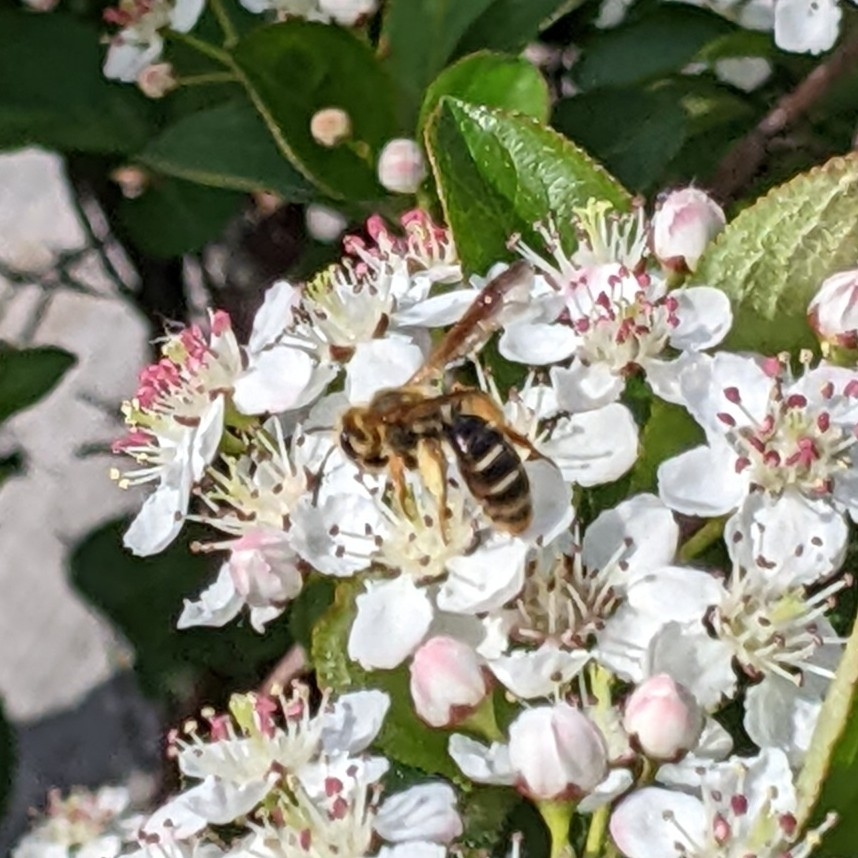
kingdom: Animalia
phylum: Arthropoda
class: Insecta
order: Hymenoptera
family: Andrenidae
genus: Andrena
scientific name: Andrena prunorum
